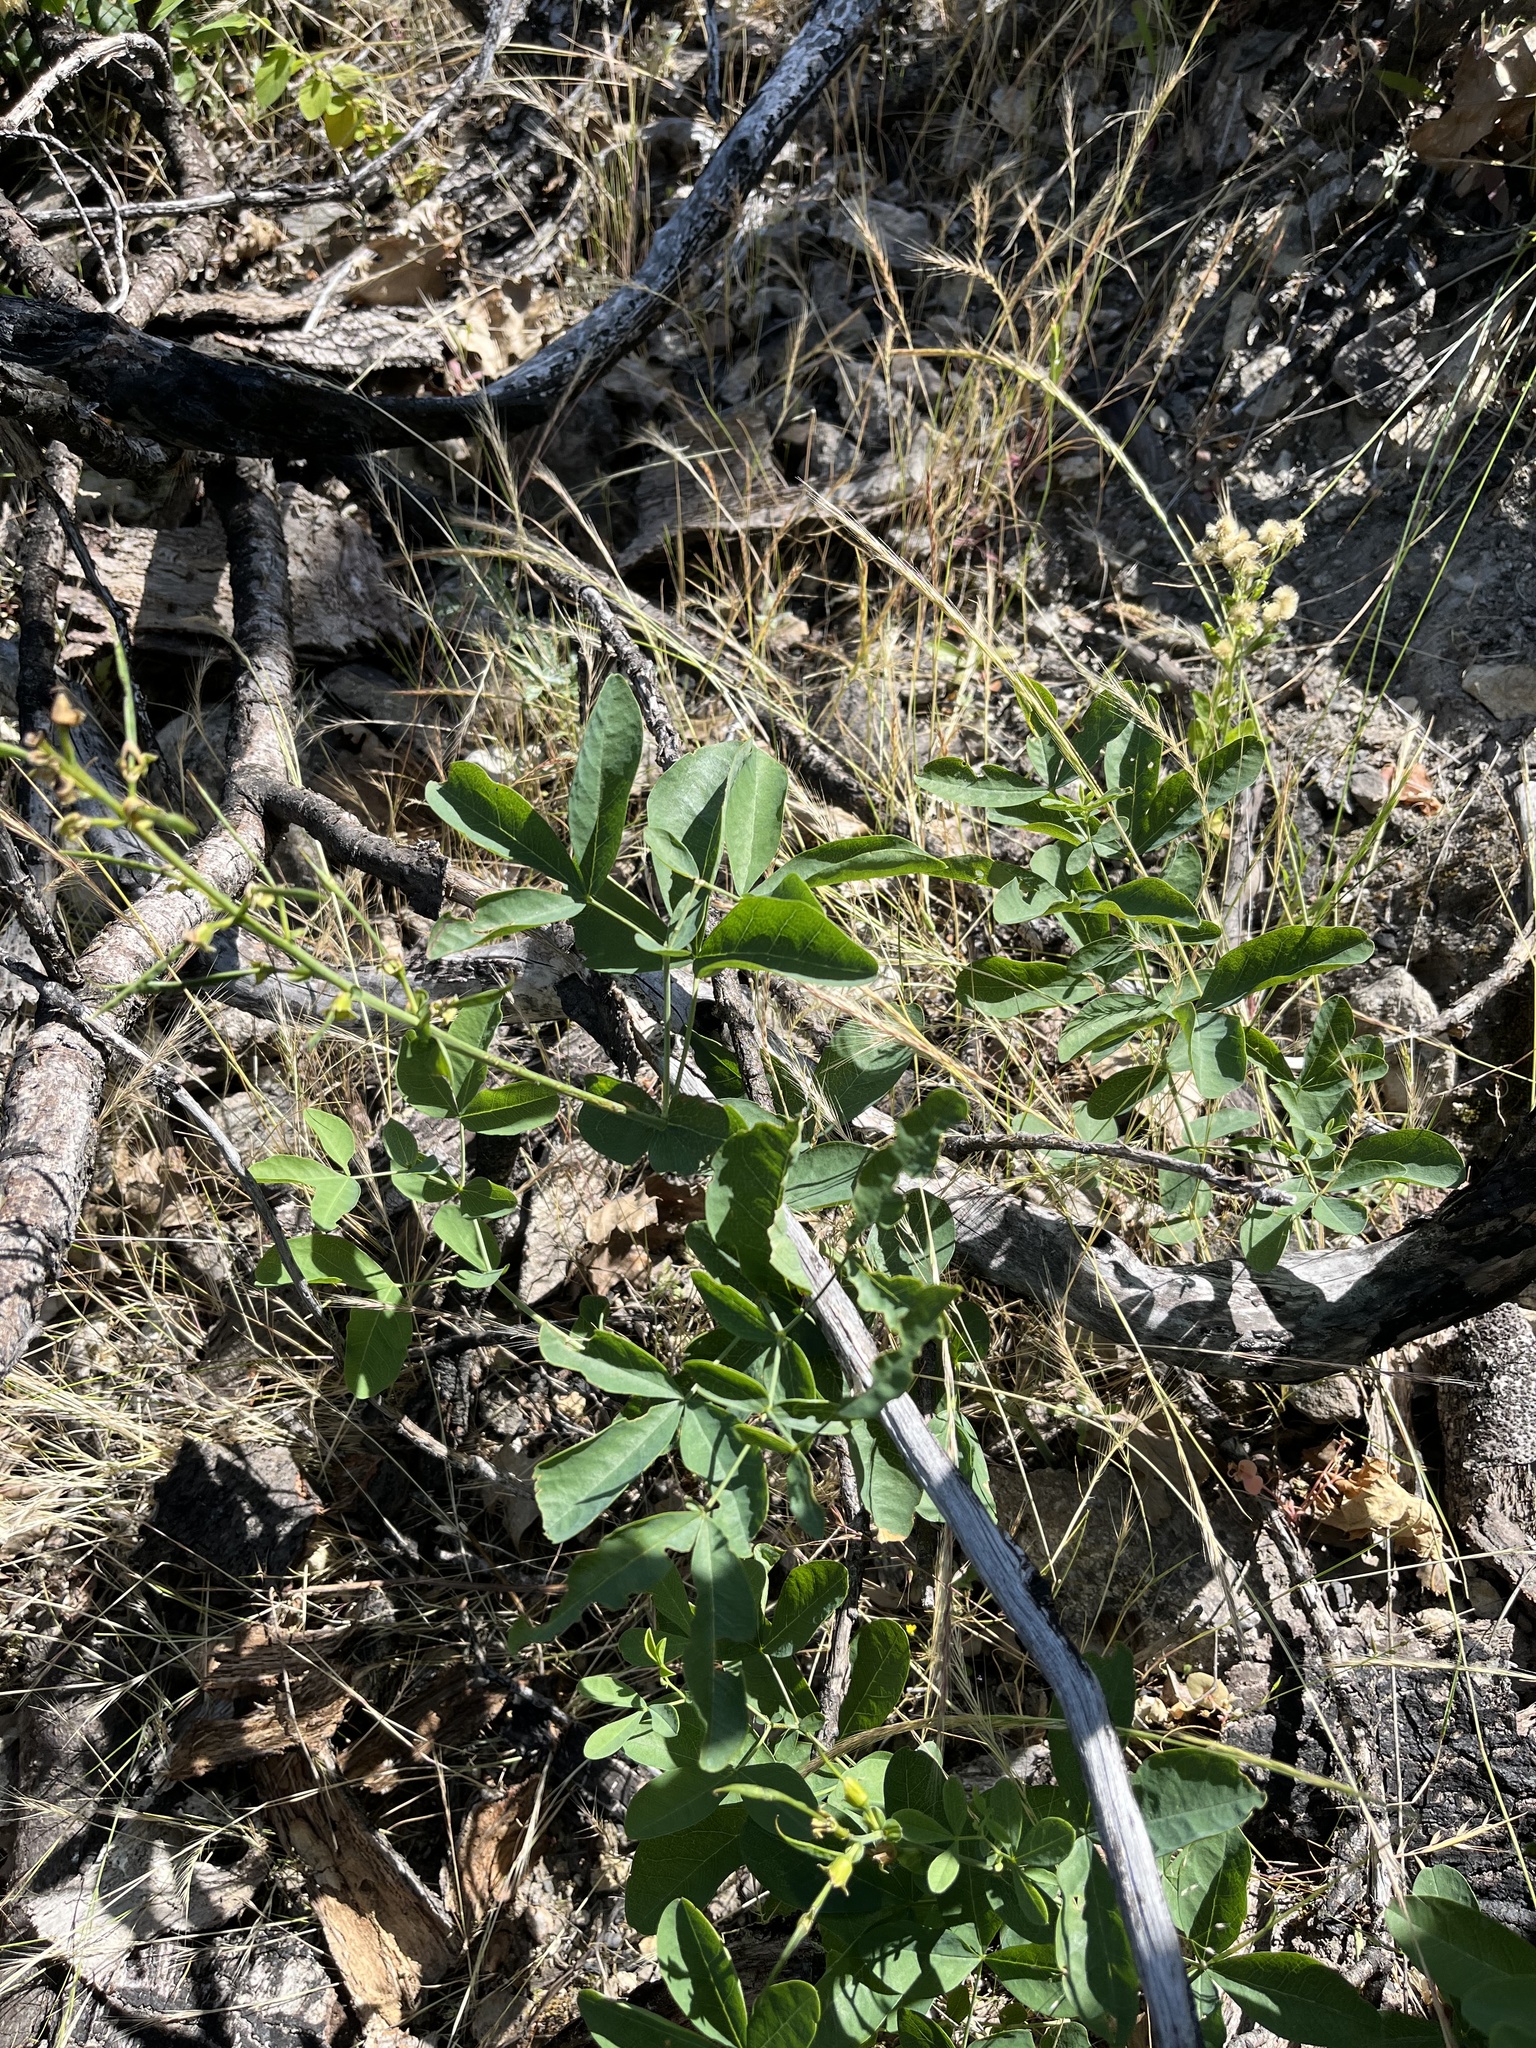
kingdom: Plantae
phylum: Tracheophyta
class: Magnoliopsida
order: Fabales
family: Fabaceae
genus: Thermopsis
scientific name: Thermopsis gracilis
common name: Slender golden-banner
